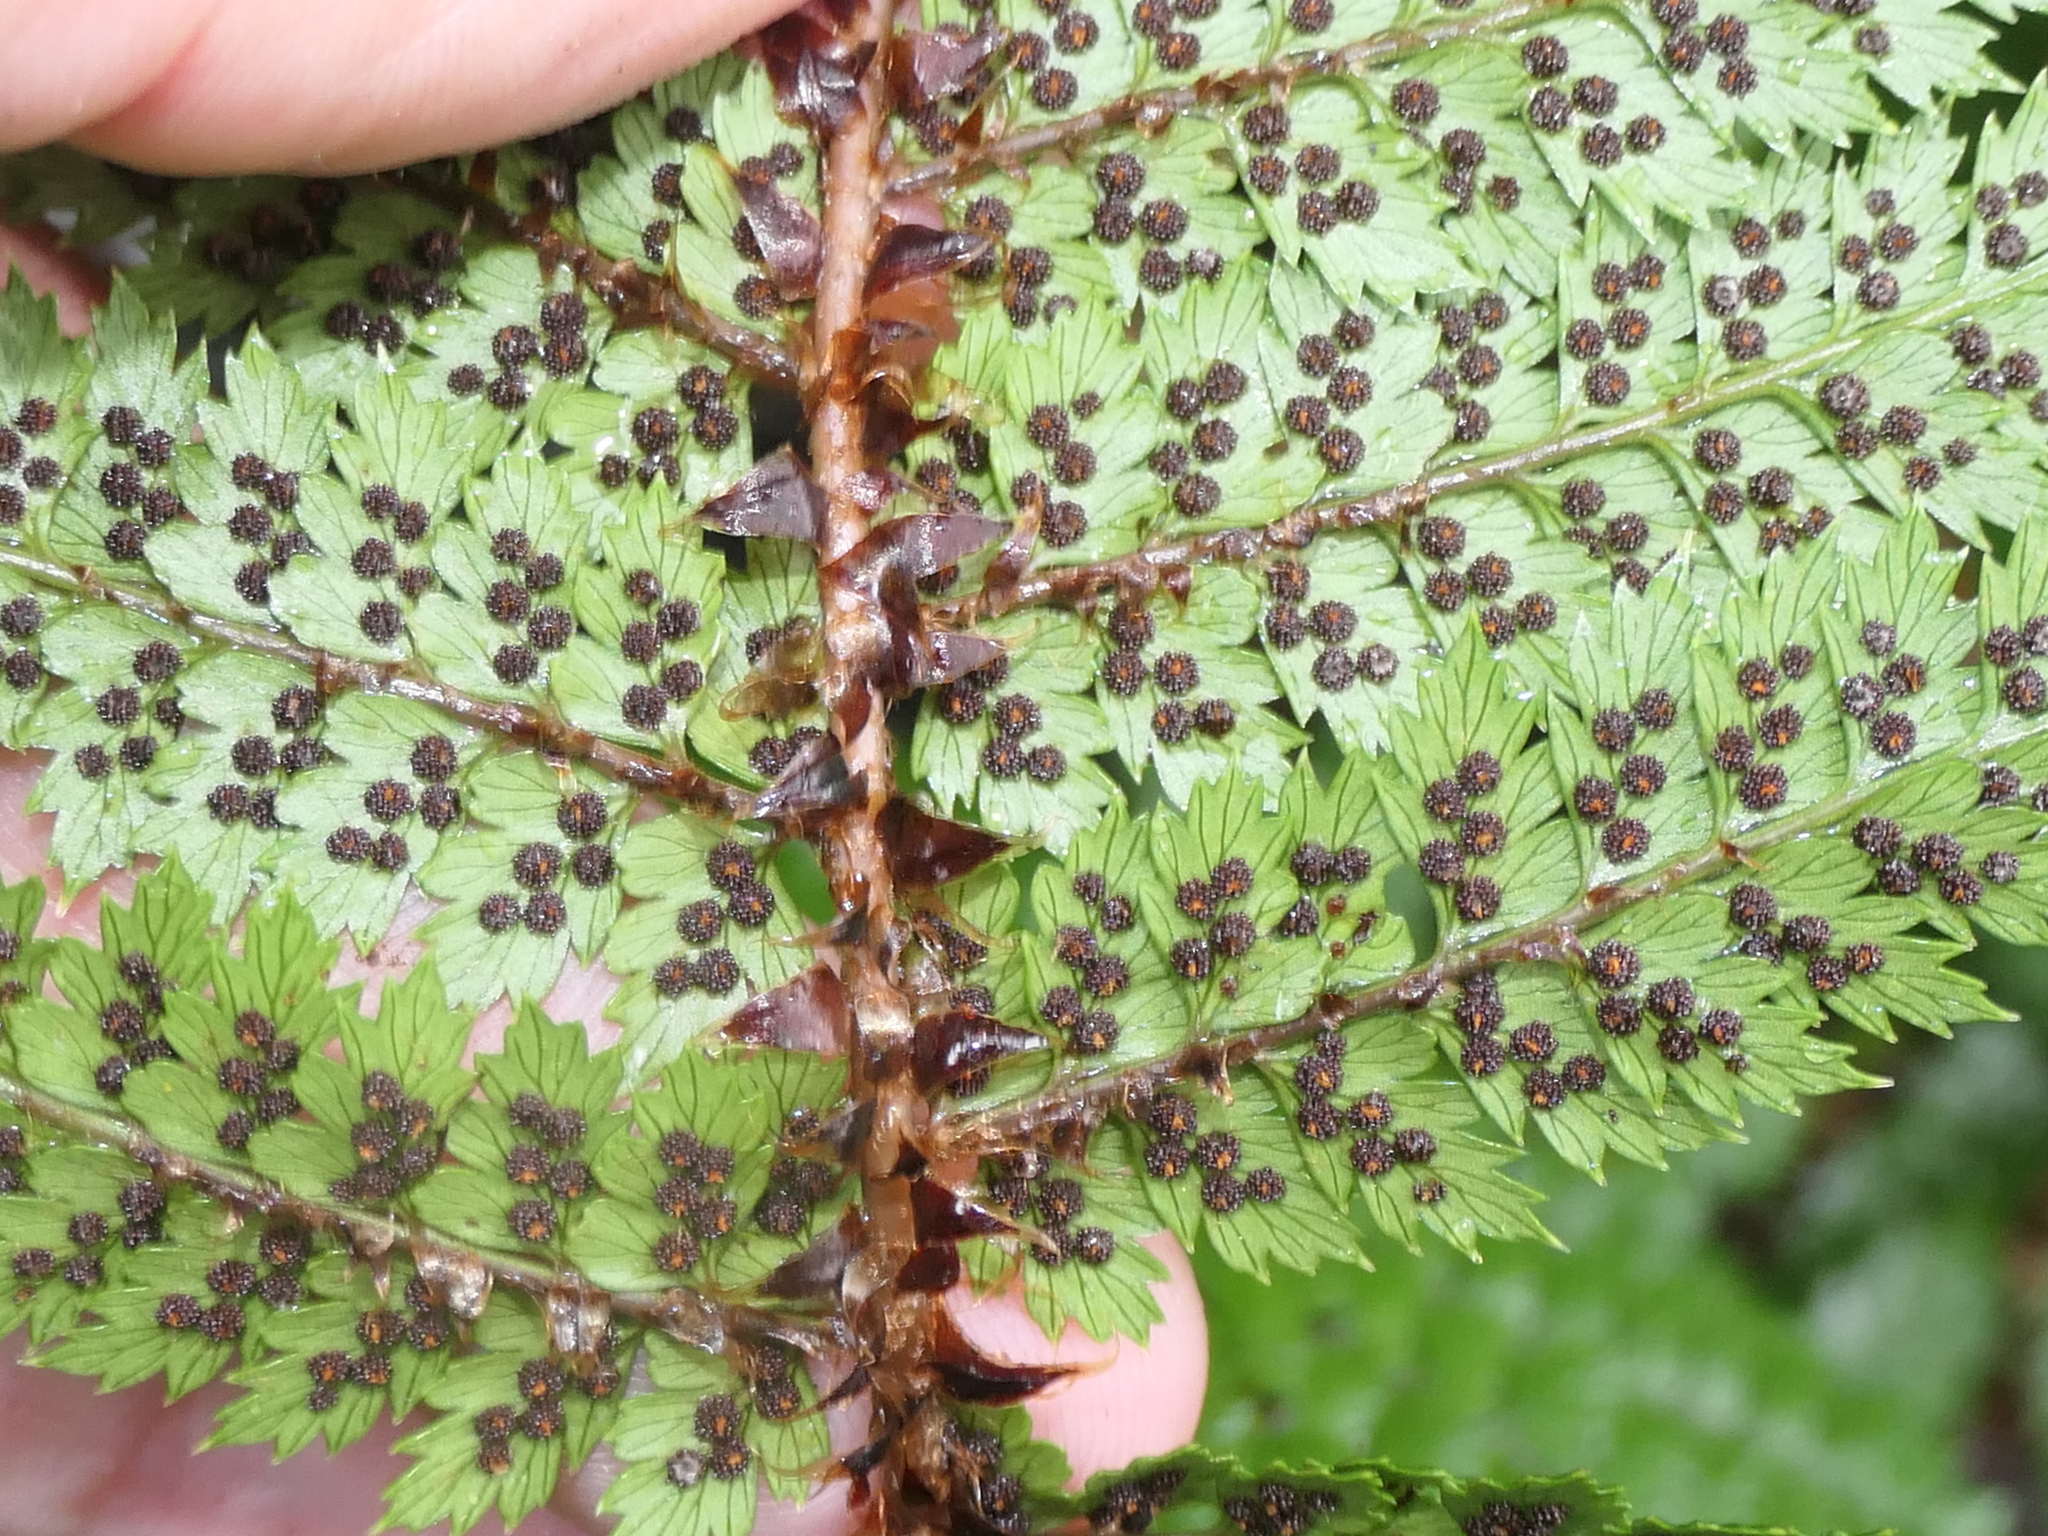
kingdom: Plantae
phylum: Tracheophyta
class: Polypodiopsida
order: Polypodiales
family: Dryopteridaceae
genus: Polystichum
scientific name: Polystichum vestitum
